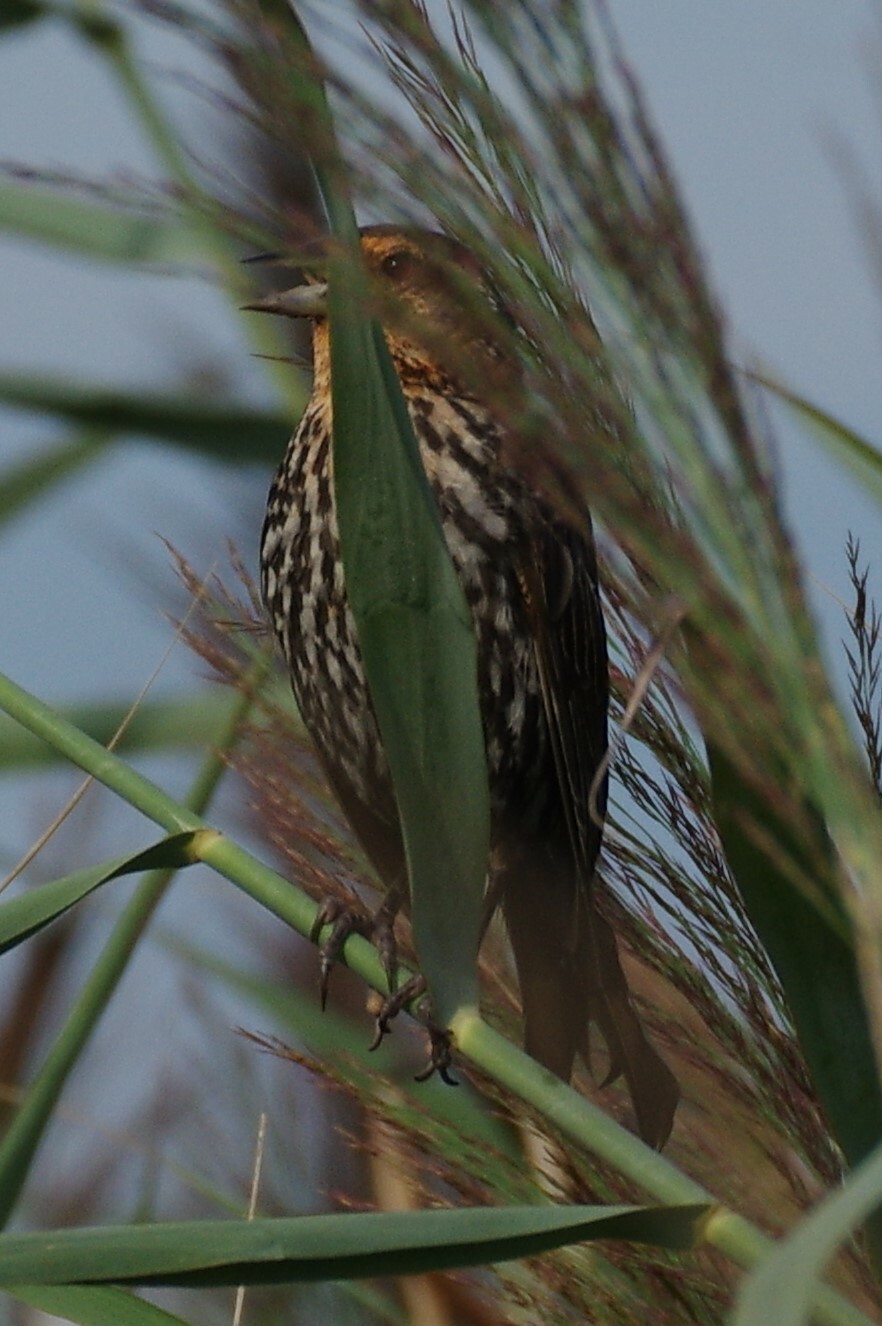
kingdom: Animalia
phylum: Chordata
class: Aves
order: Passeriformes
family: Icteridae
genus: Agelaius
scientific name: Agelaius phoeniceus
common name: Red-winged blackbird
